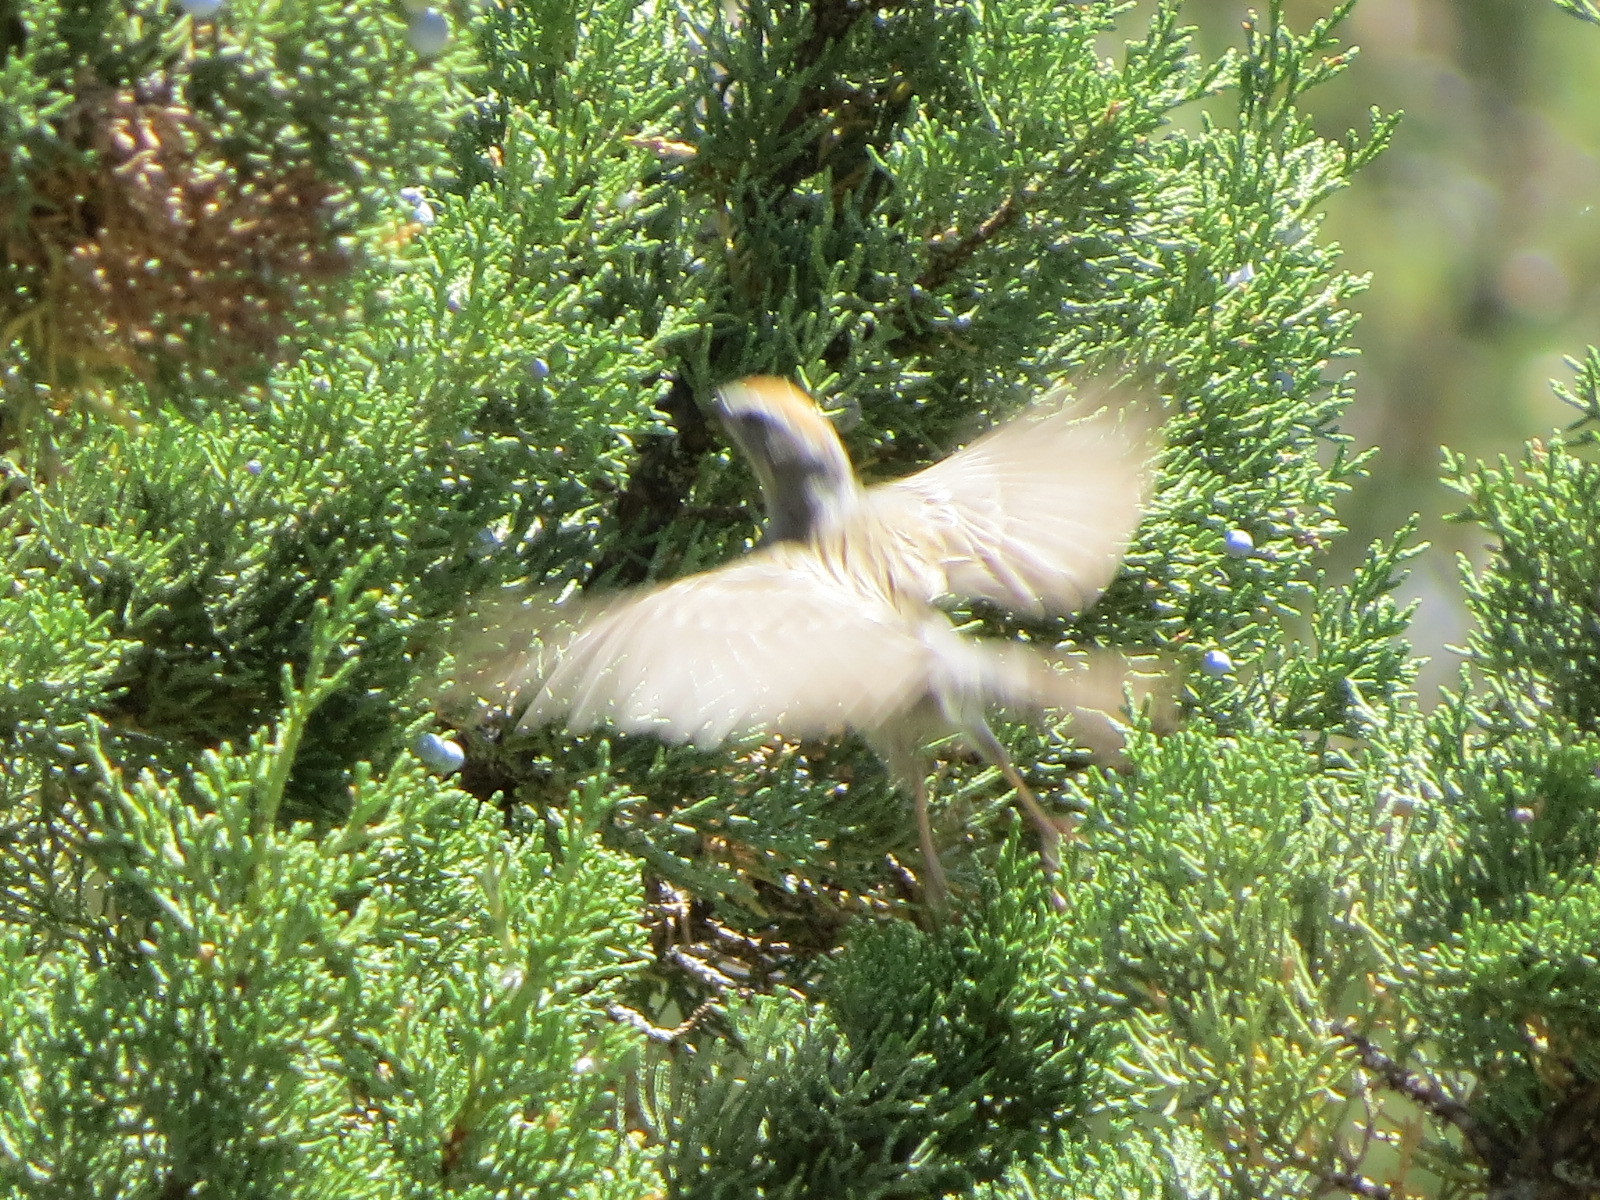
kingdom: Animalia
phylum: Chordata
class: Aves
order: Passeriformes
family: Passerellidae
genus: Spizella
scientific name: Spizella passerina
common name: Chipping sparrow
